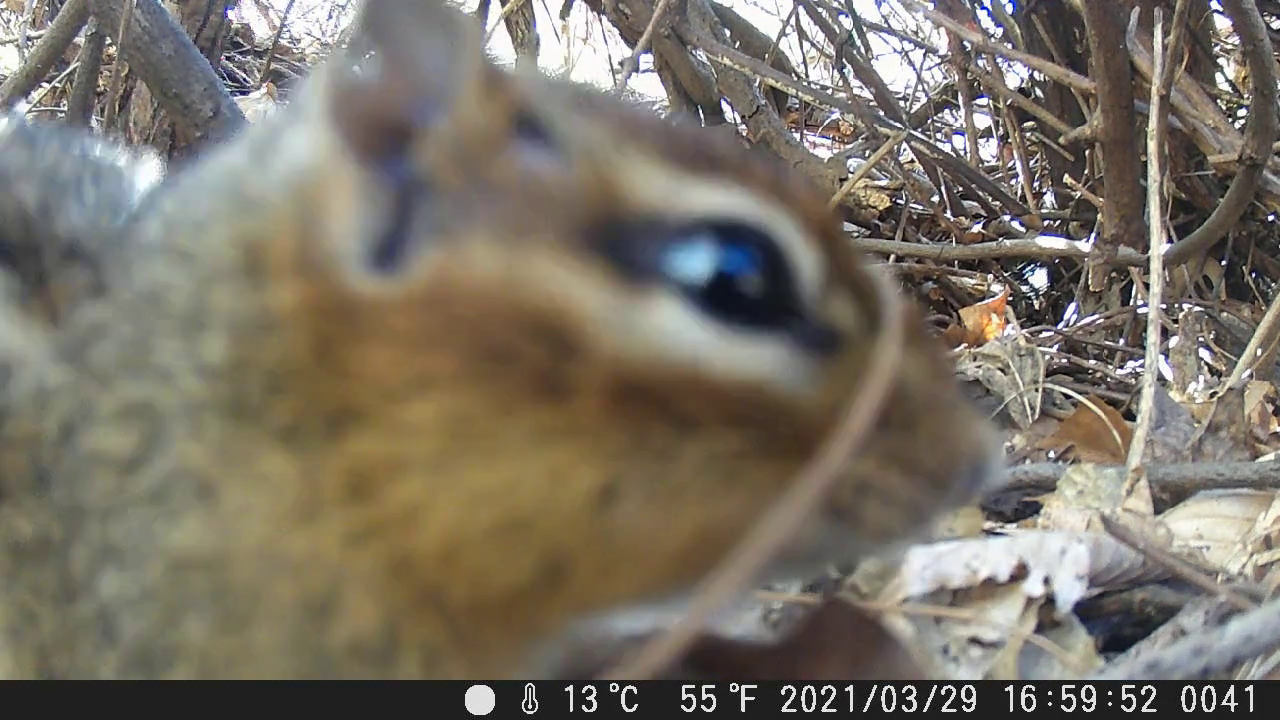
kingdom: Animalia
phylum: Chordata
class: Mammalia
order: Rodentia
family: Sciuridae
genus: Tamias
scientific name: Tamias striatus
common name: Eastern chipmunk
